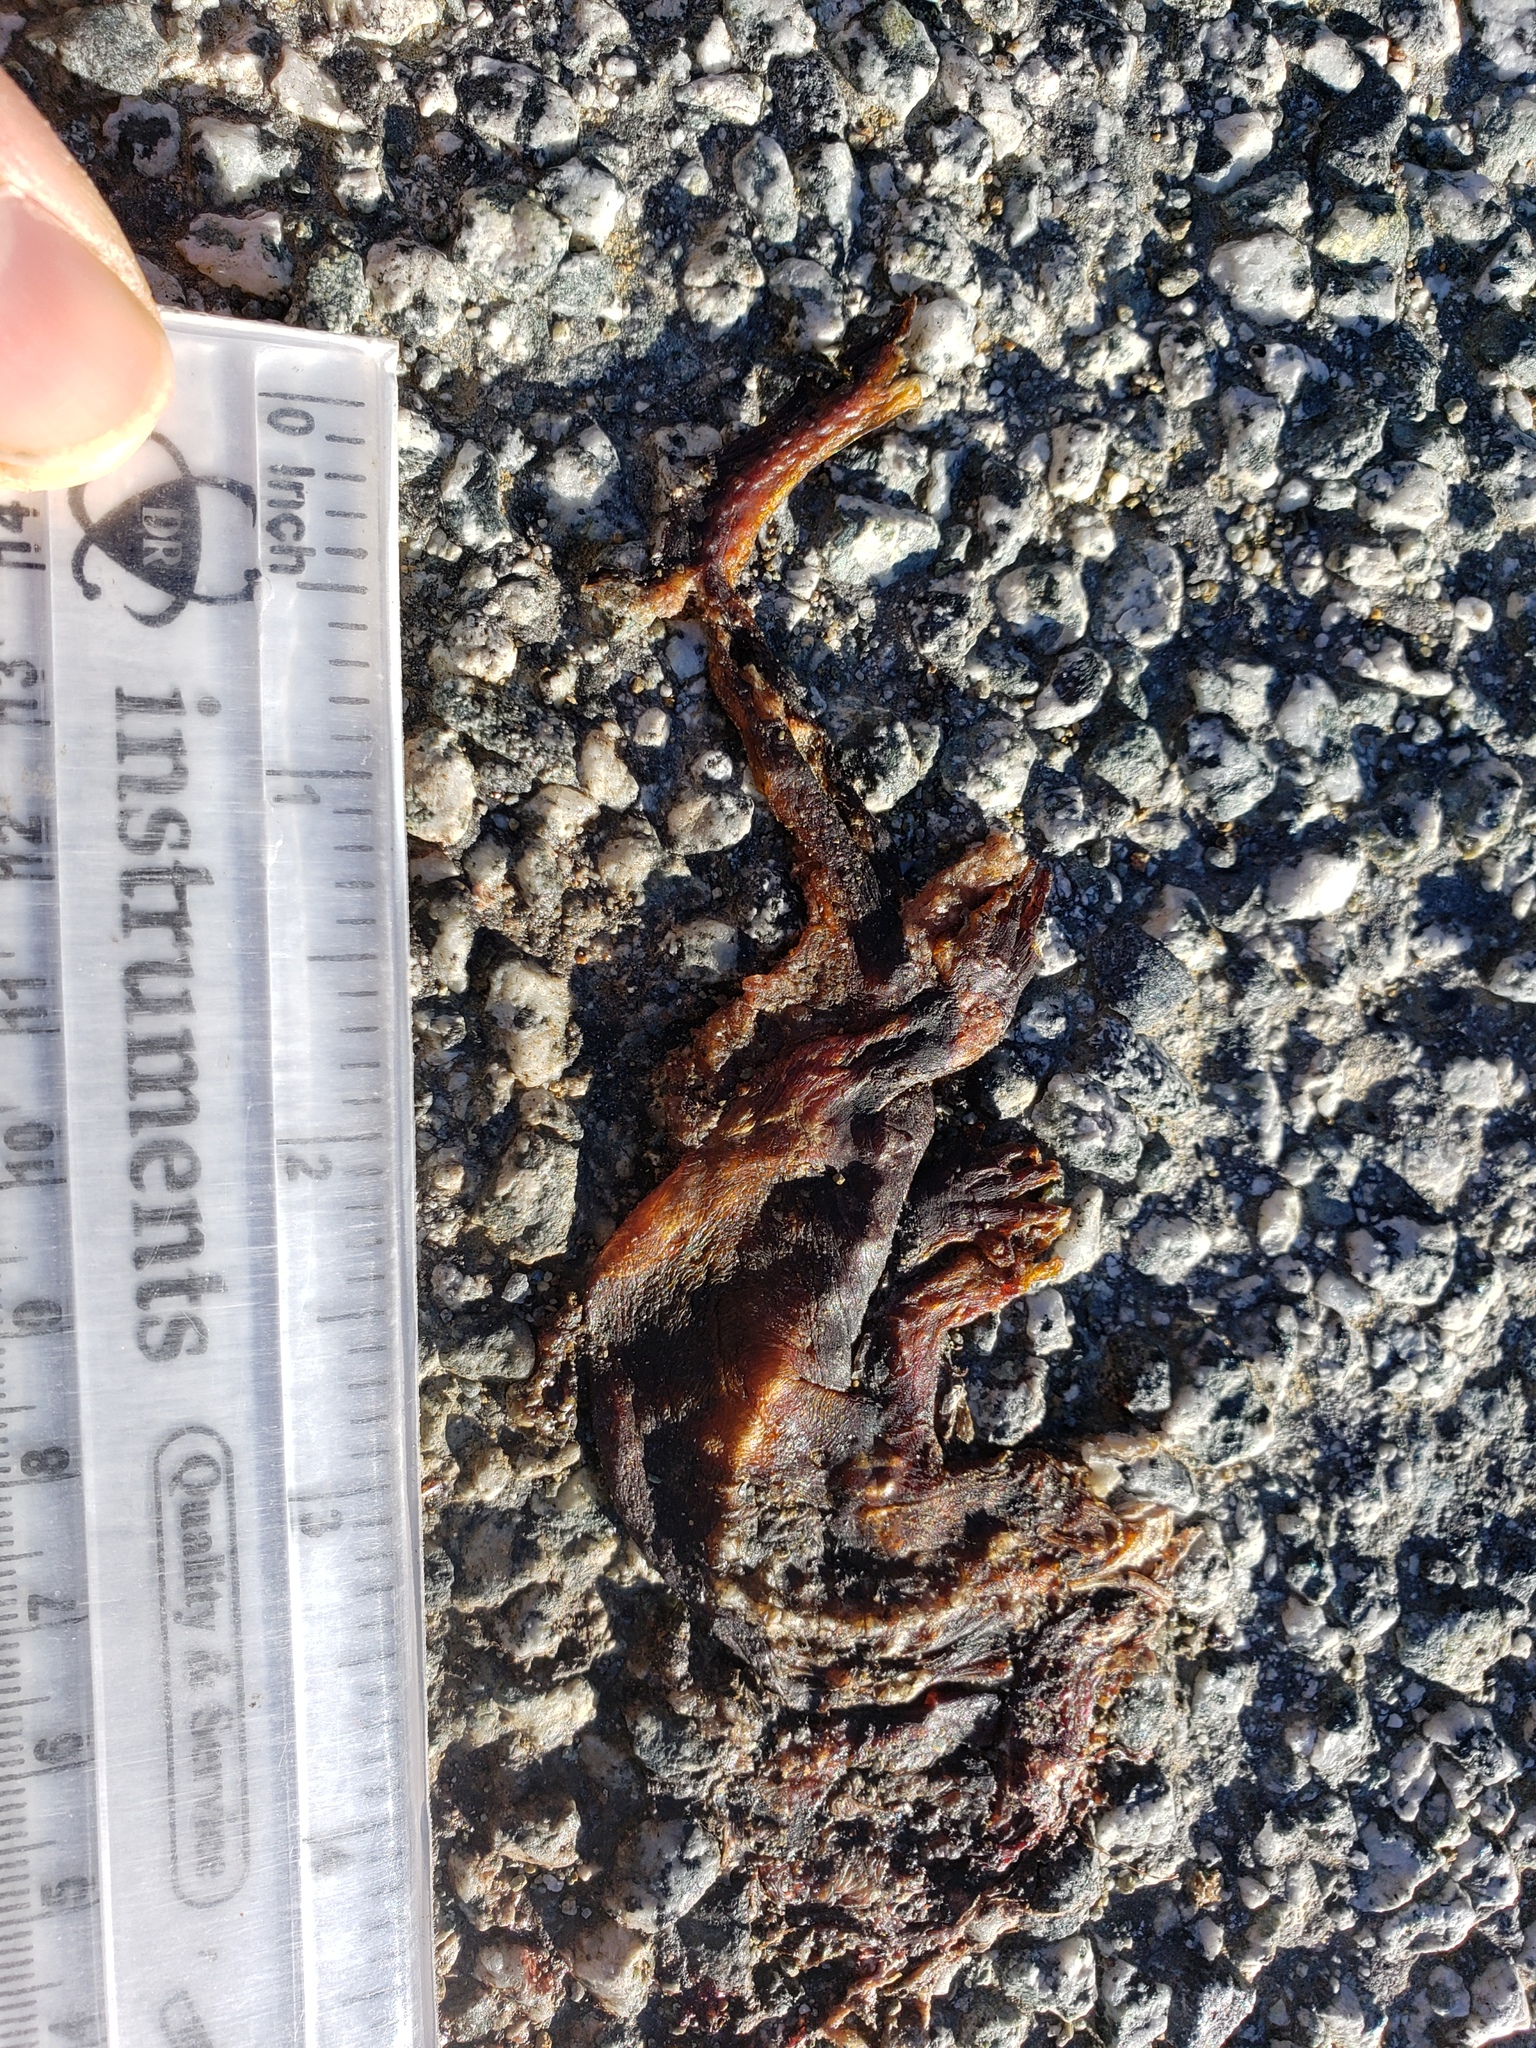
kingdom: Animalia
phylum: Chordata
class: Amphibia
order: Caudata
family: Salamandridae
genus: Taricha
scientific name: Taricha
